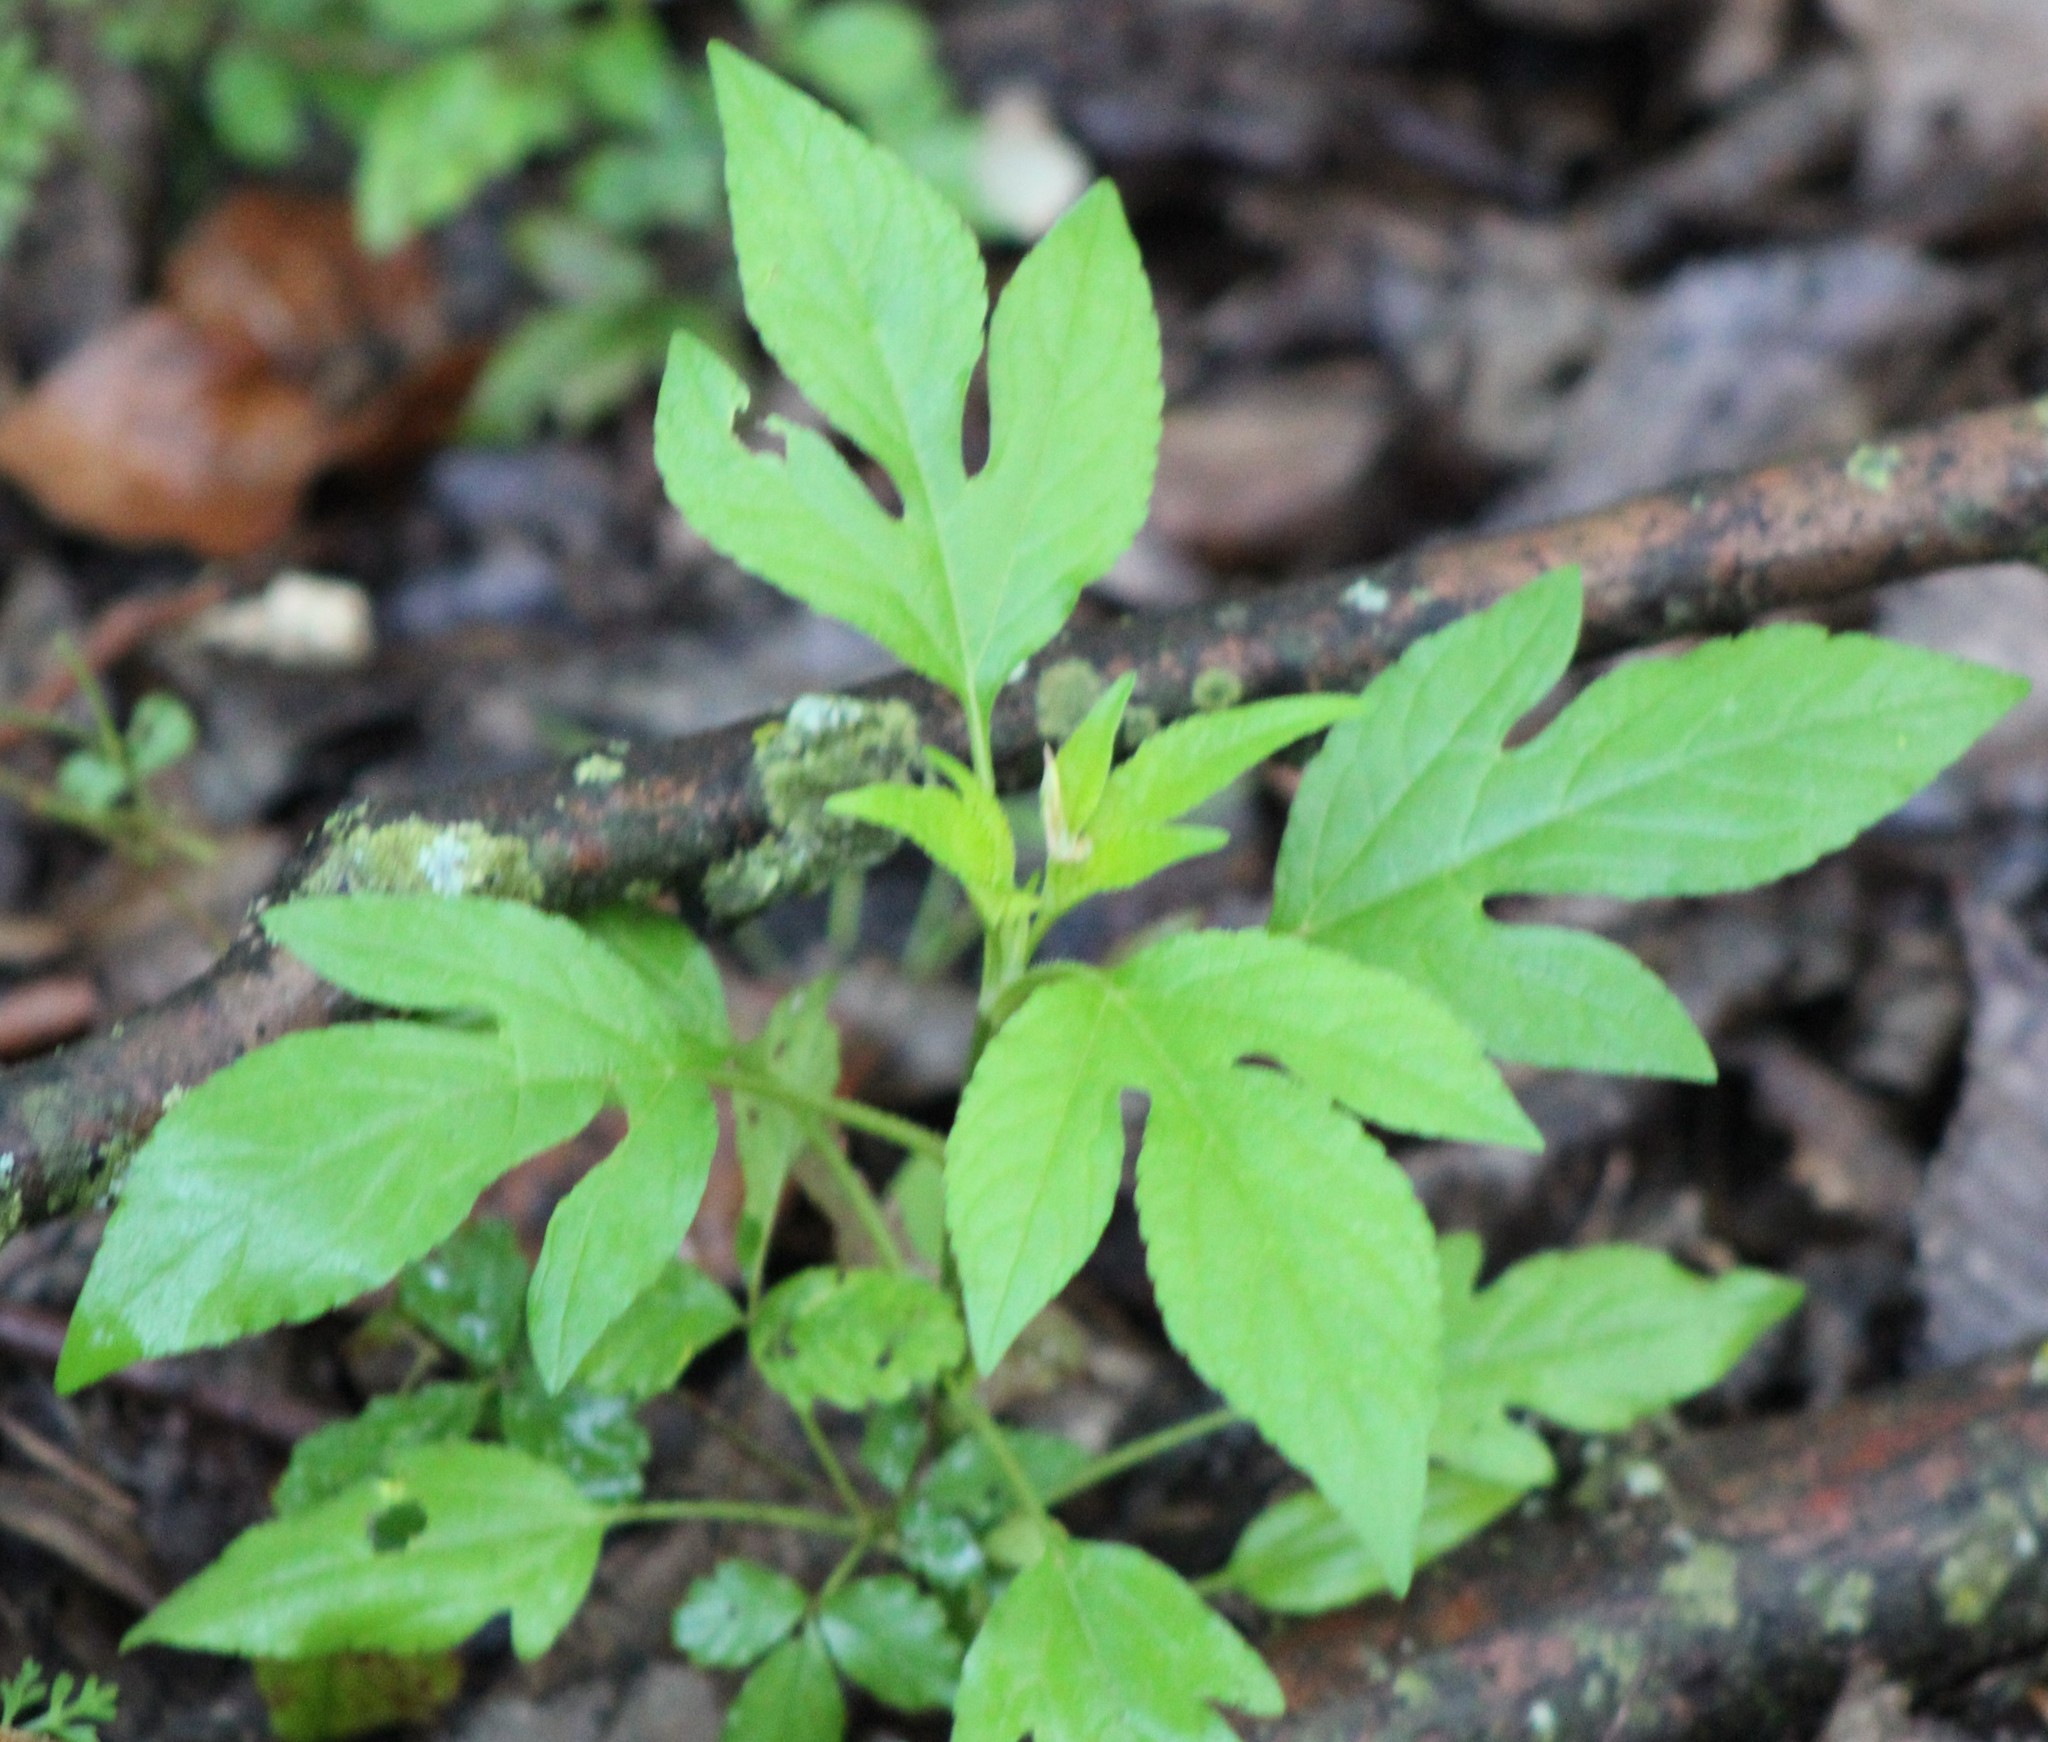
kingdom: Plantae
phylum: Tracheophyta
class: Magnoliopsida
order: Asterales
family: Asteraceae
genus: Ambrosia
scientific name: Ambrosia trifida
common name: Giant ragweed
